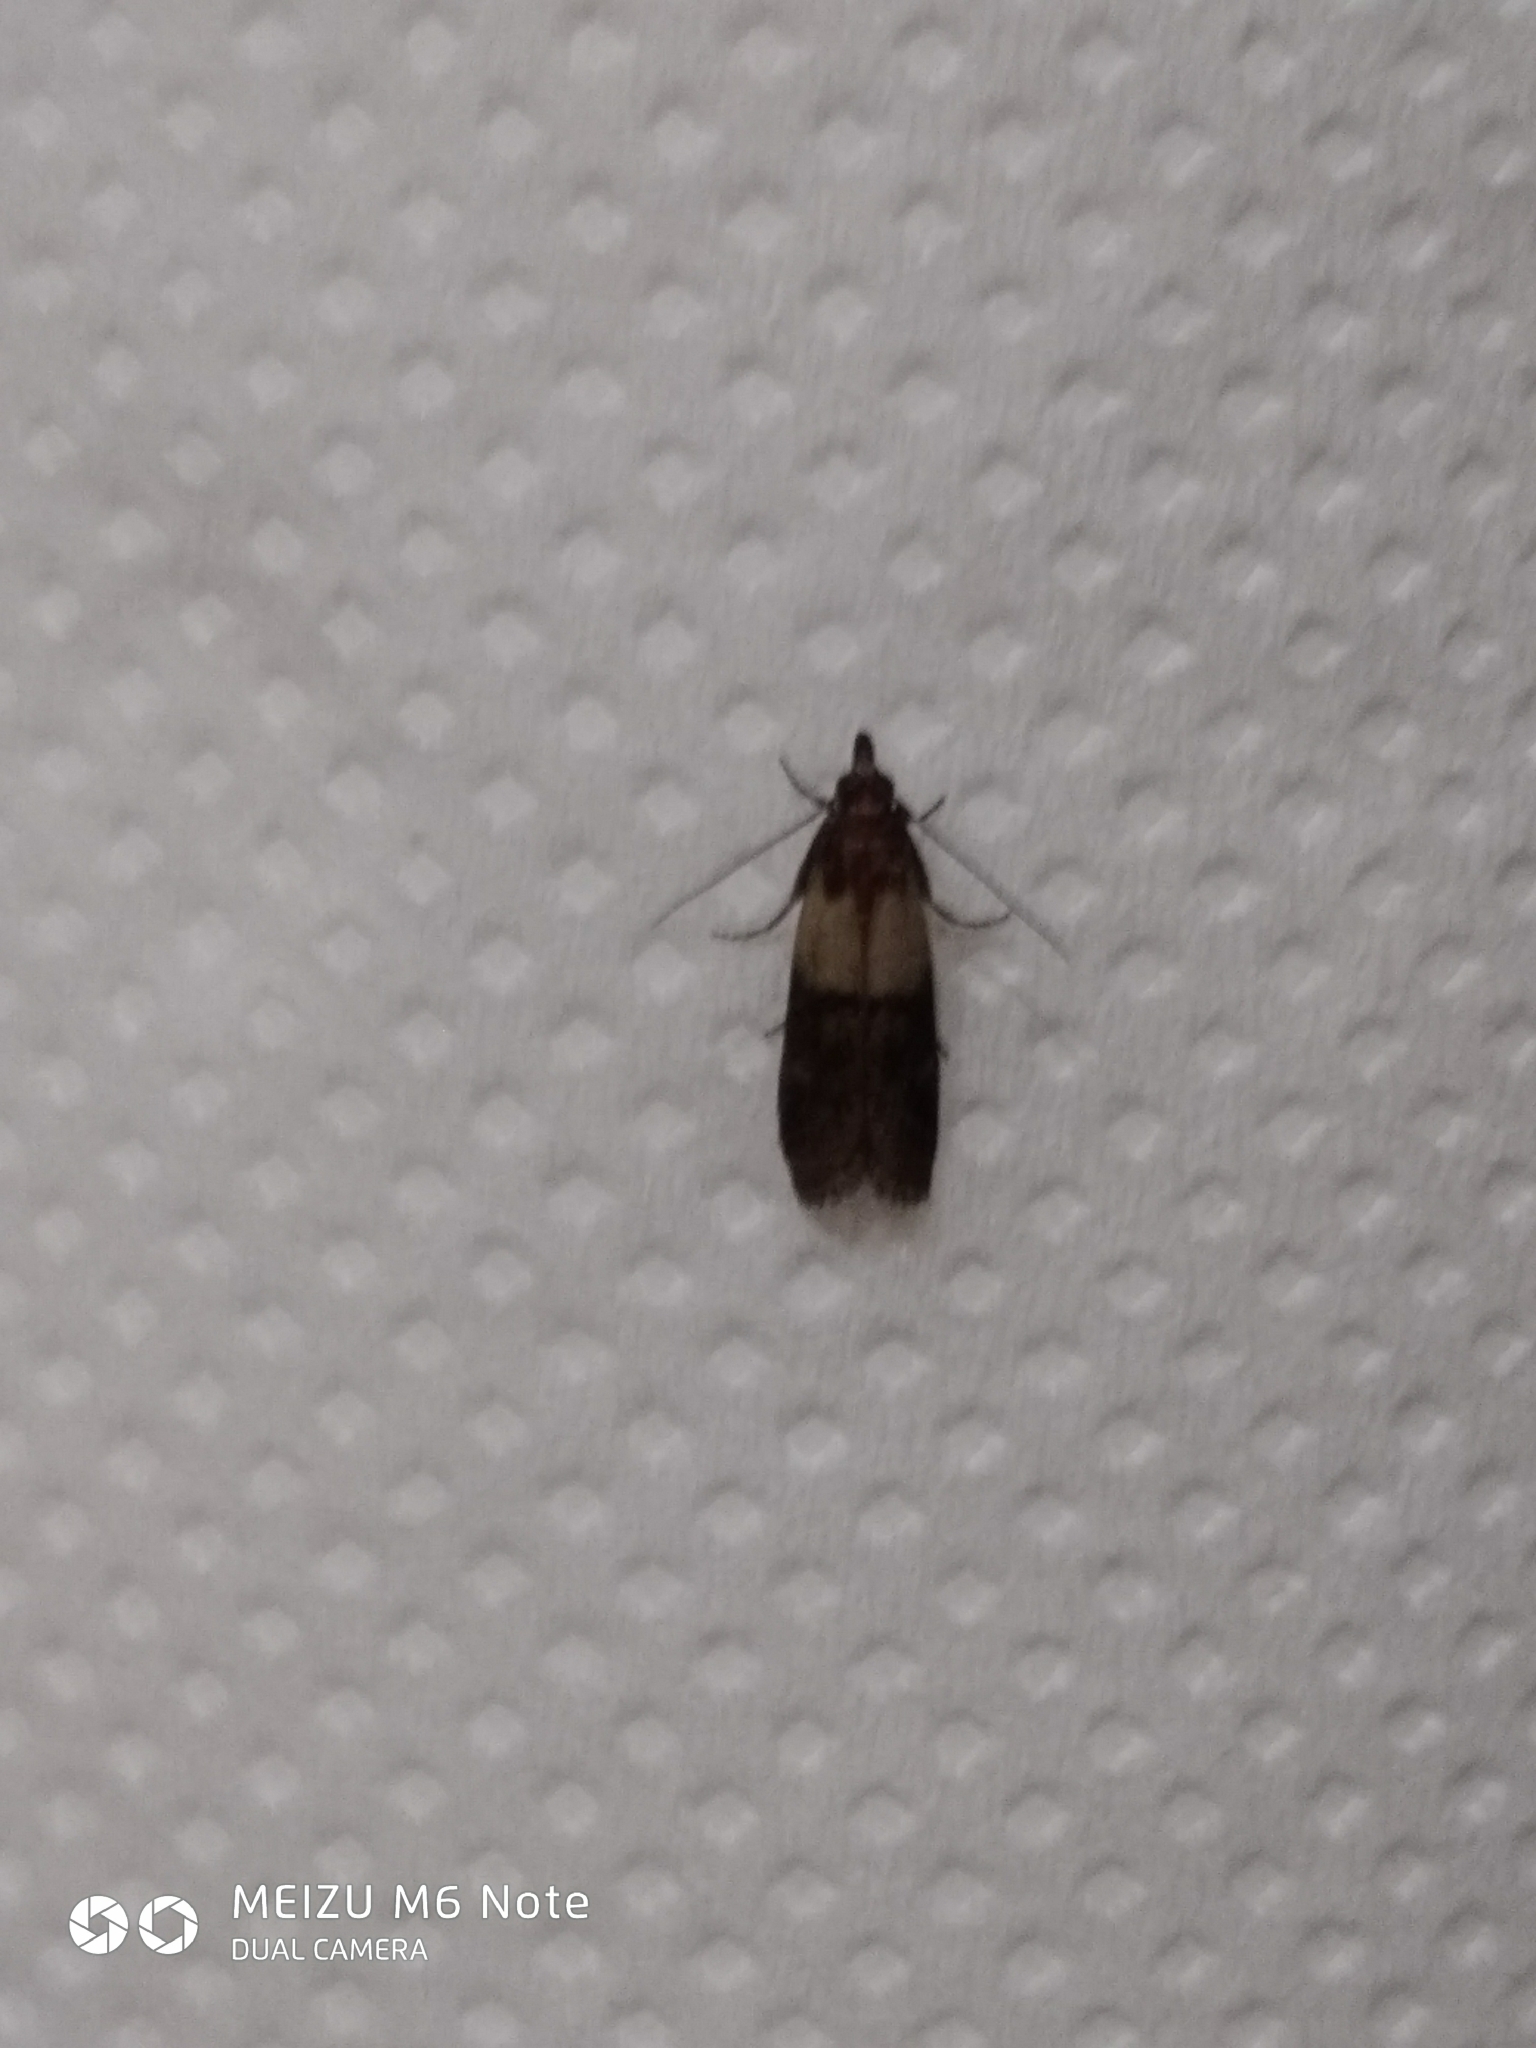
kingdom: Animalia
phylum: Arthropoda
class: Insecta
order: Lepidoptera
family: Pyralidae
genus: Plodia
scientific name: Plodia interpunctella
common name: Indian meal moth
